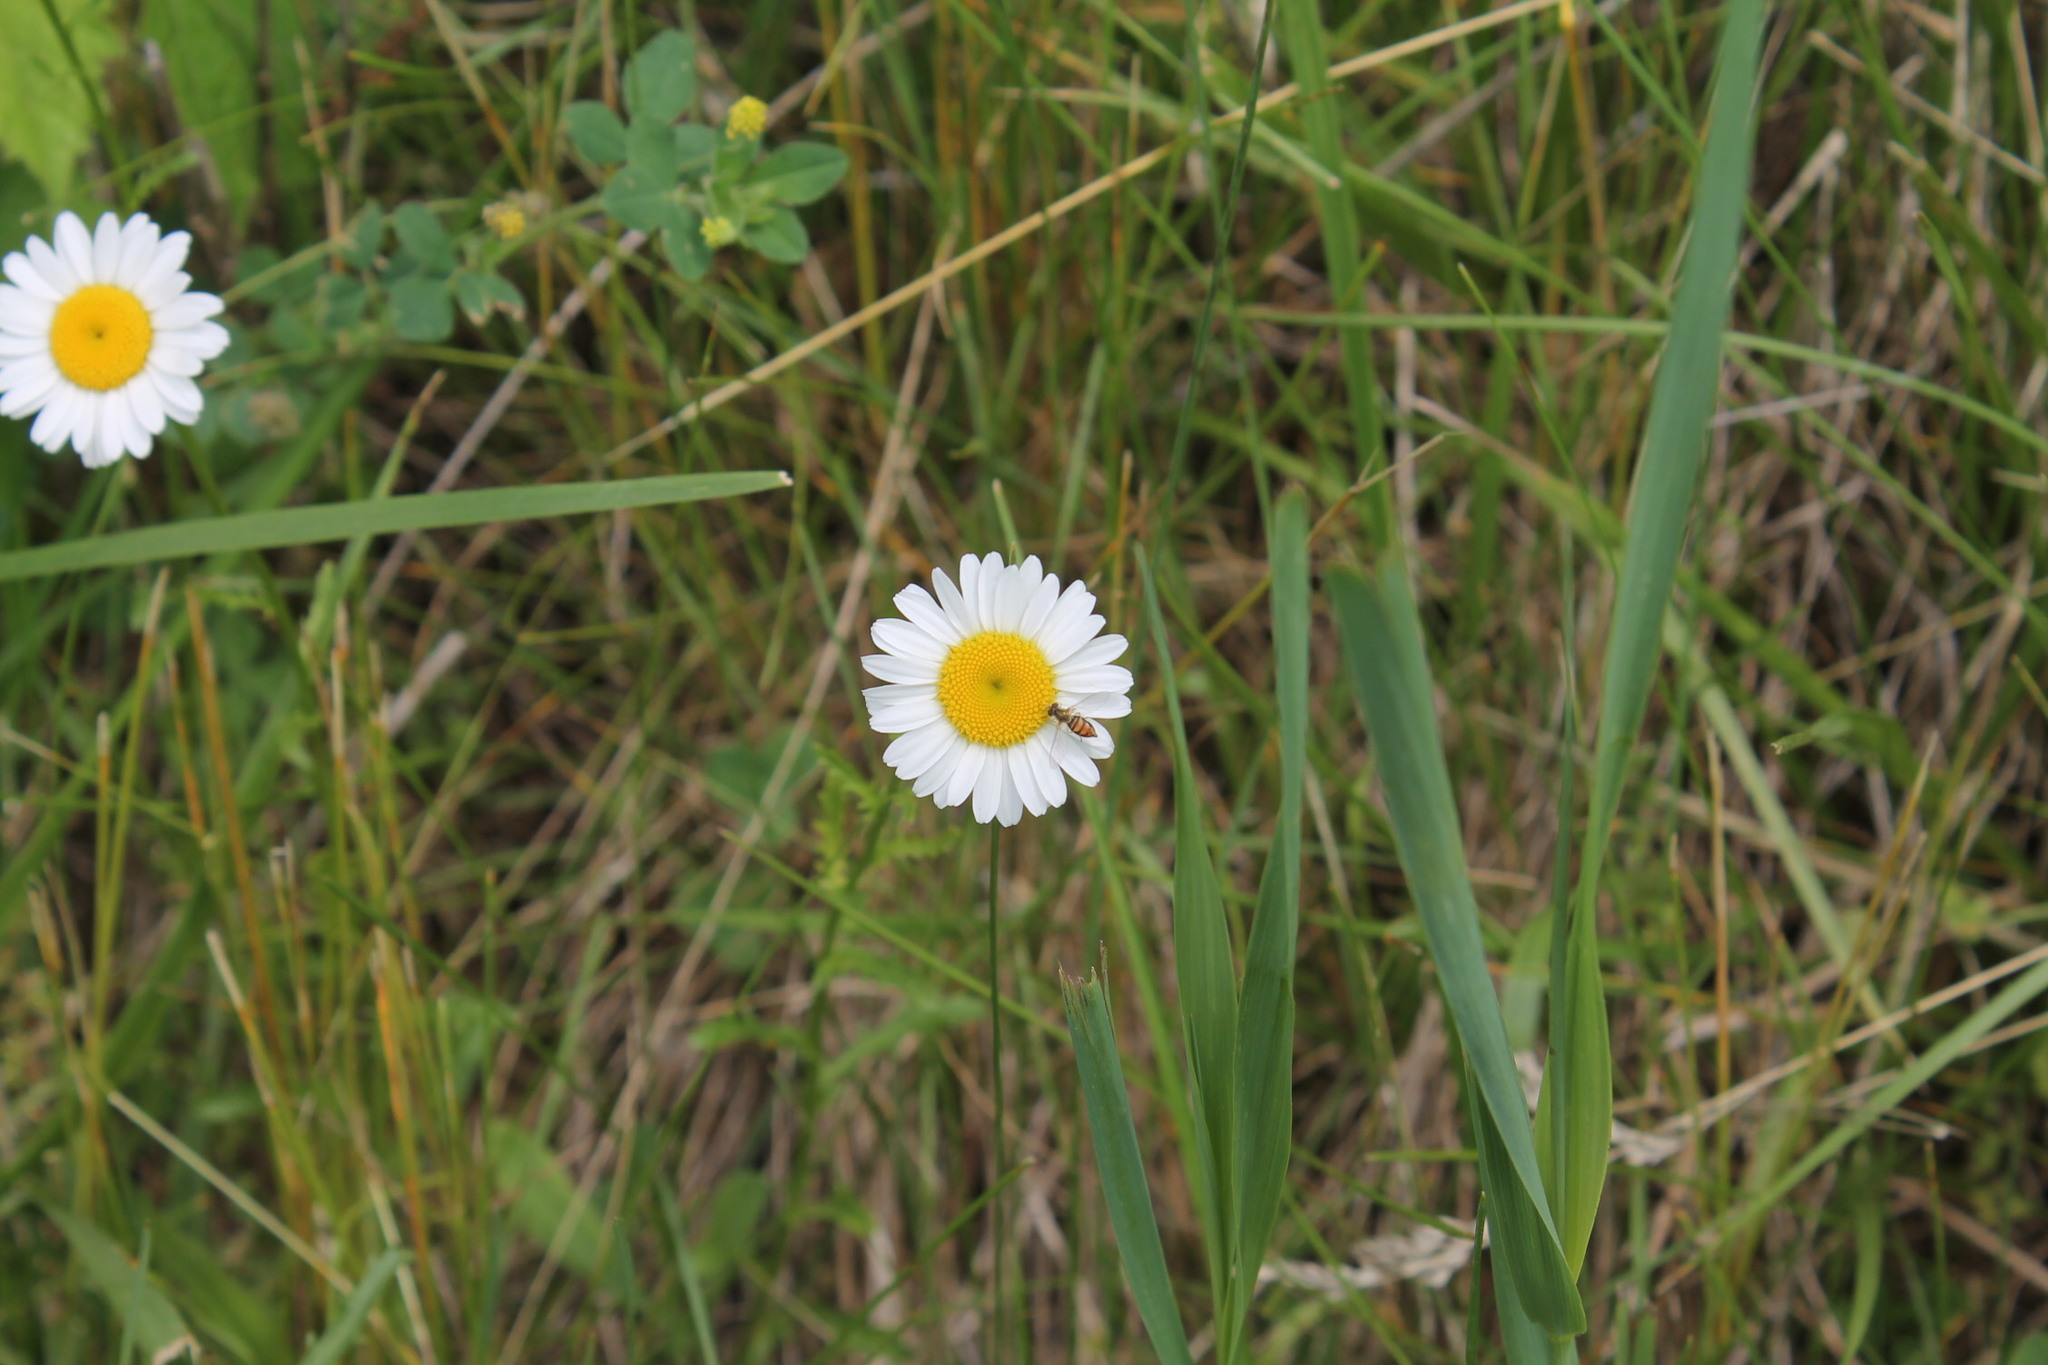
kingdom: Animalia
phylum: Arthropoda
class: Insecta
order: Diptera
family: Syrphidae
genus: Toxomerus
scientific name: Toxomerus marginatus
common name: Syrphid fly
